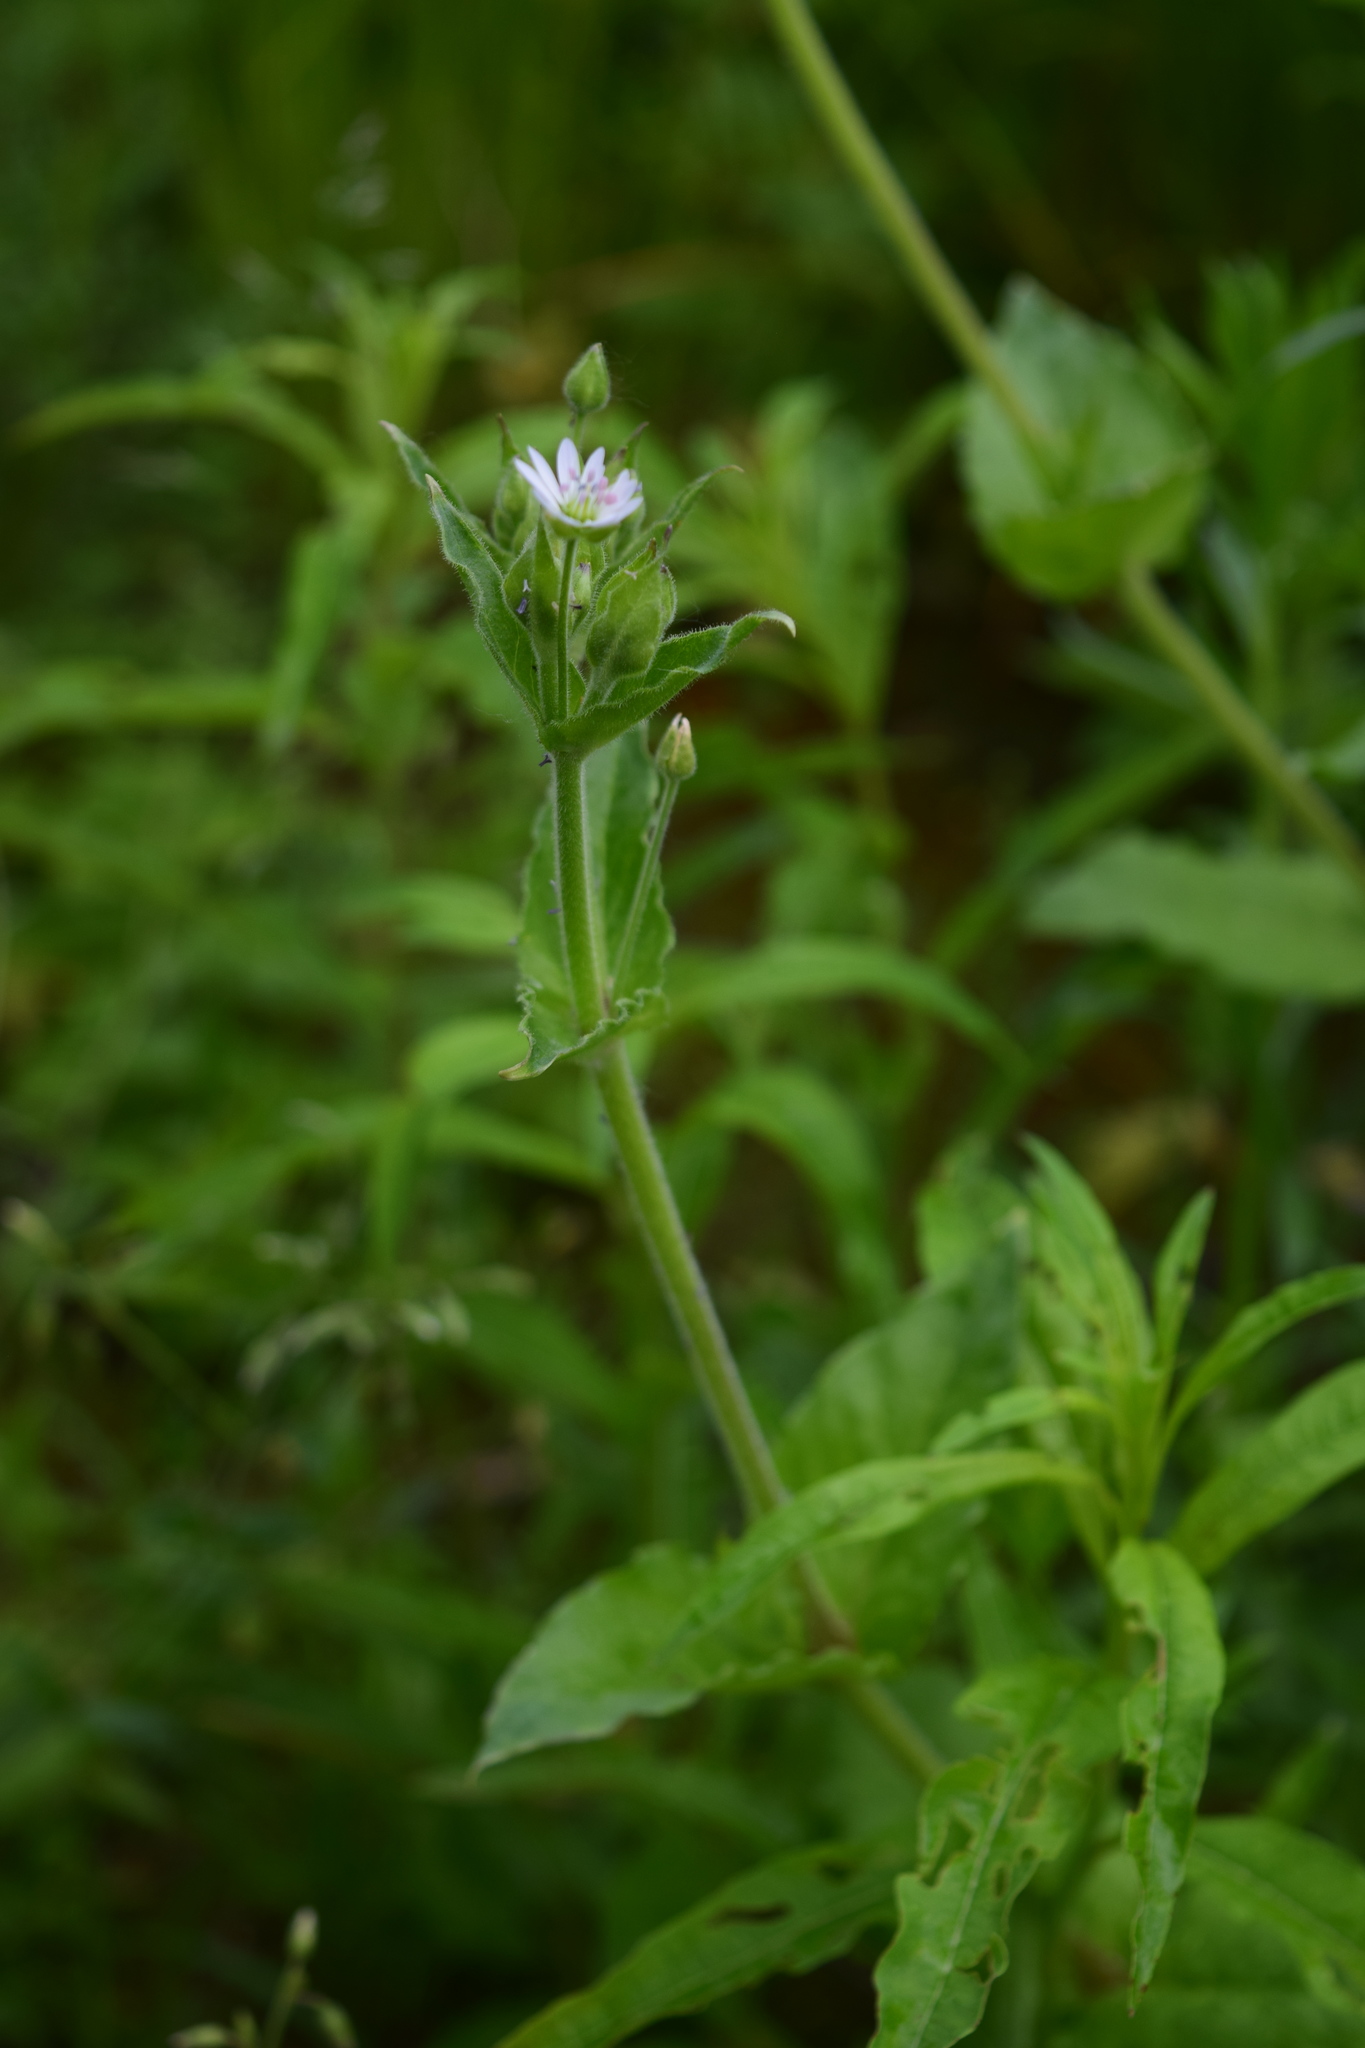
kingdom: Plantae
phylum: Tracheophyta
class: Magnoliopsida
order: Caryophyllales
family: Caryophyllaceae
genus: Stellaria
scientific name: Stellaria aquatica
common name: Water chickweed
